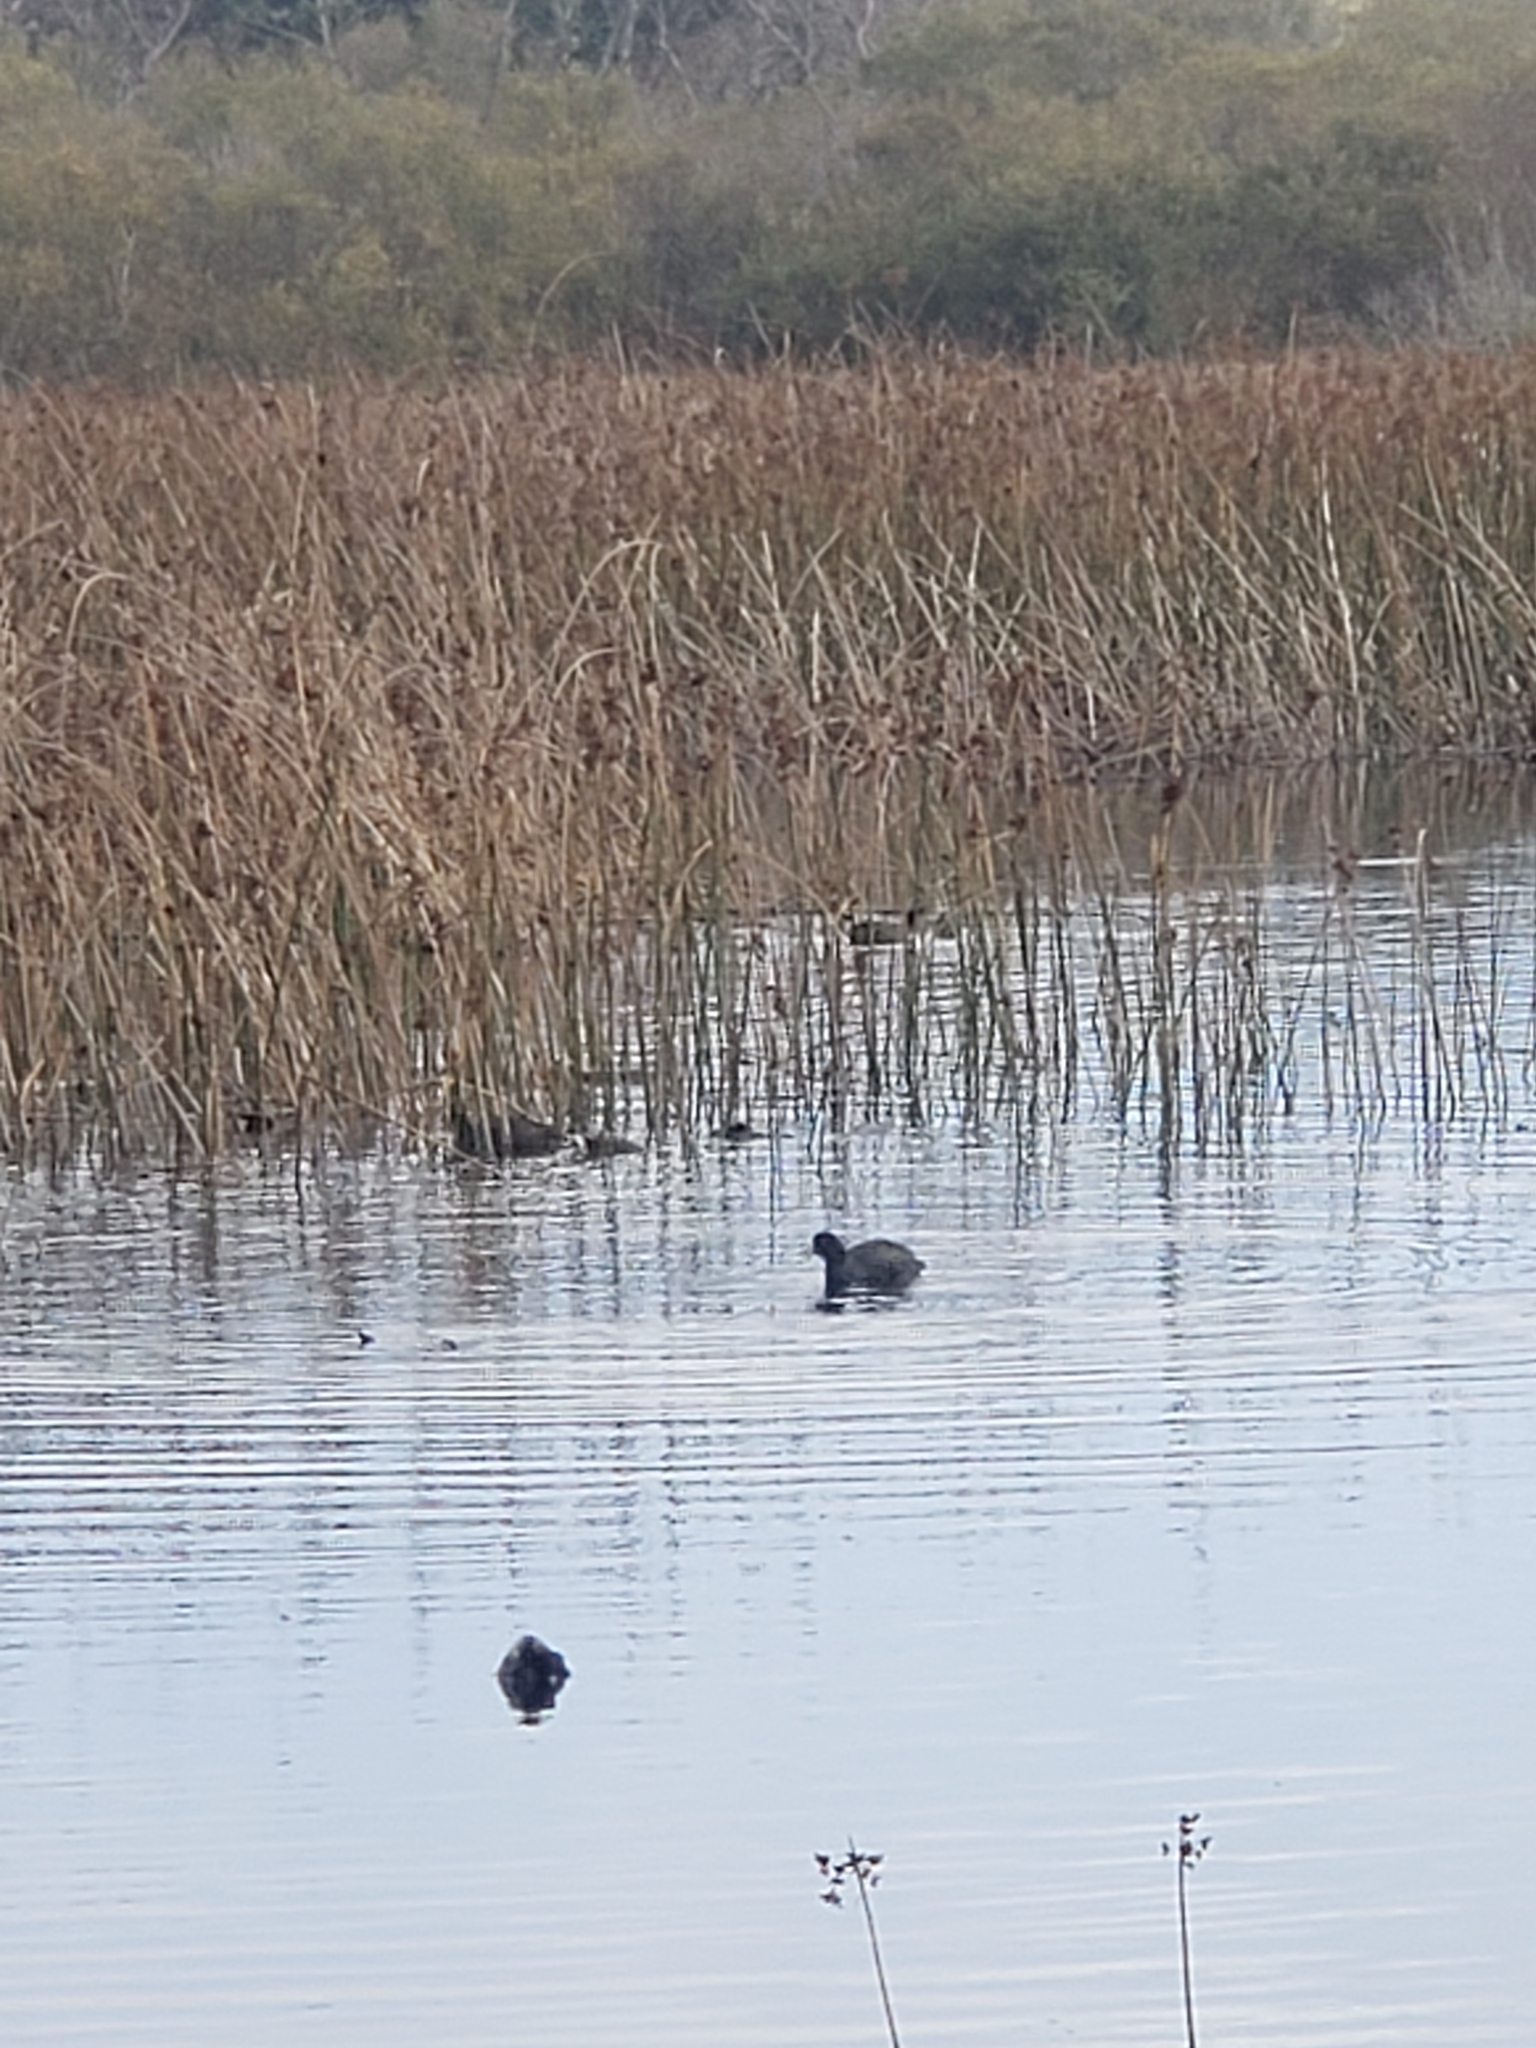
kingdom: Animalia
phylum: Chordata
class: Aves
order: Gruiformes
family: Rallidae
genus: Fulica
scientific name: Fulica americana
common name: American coot
